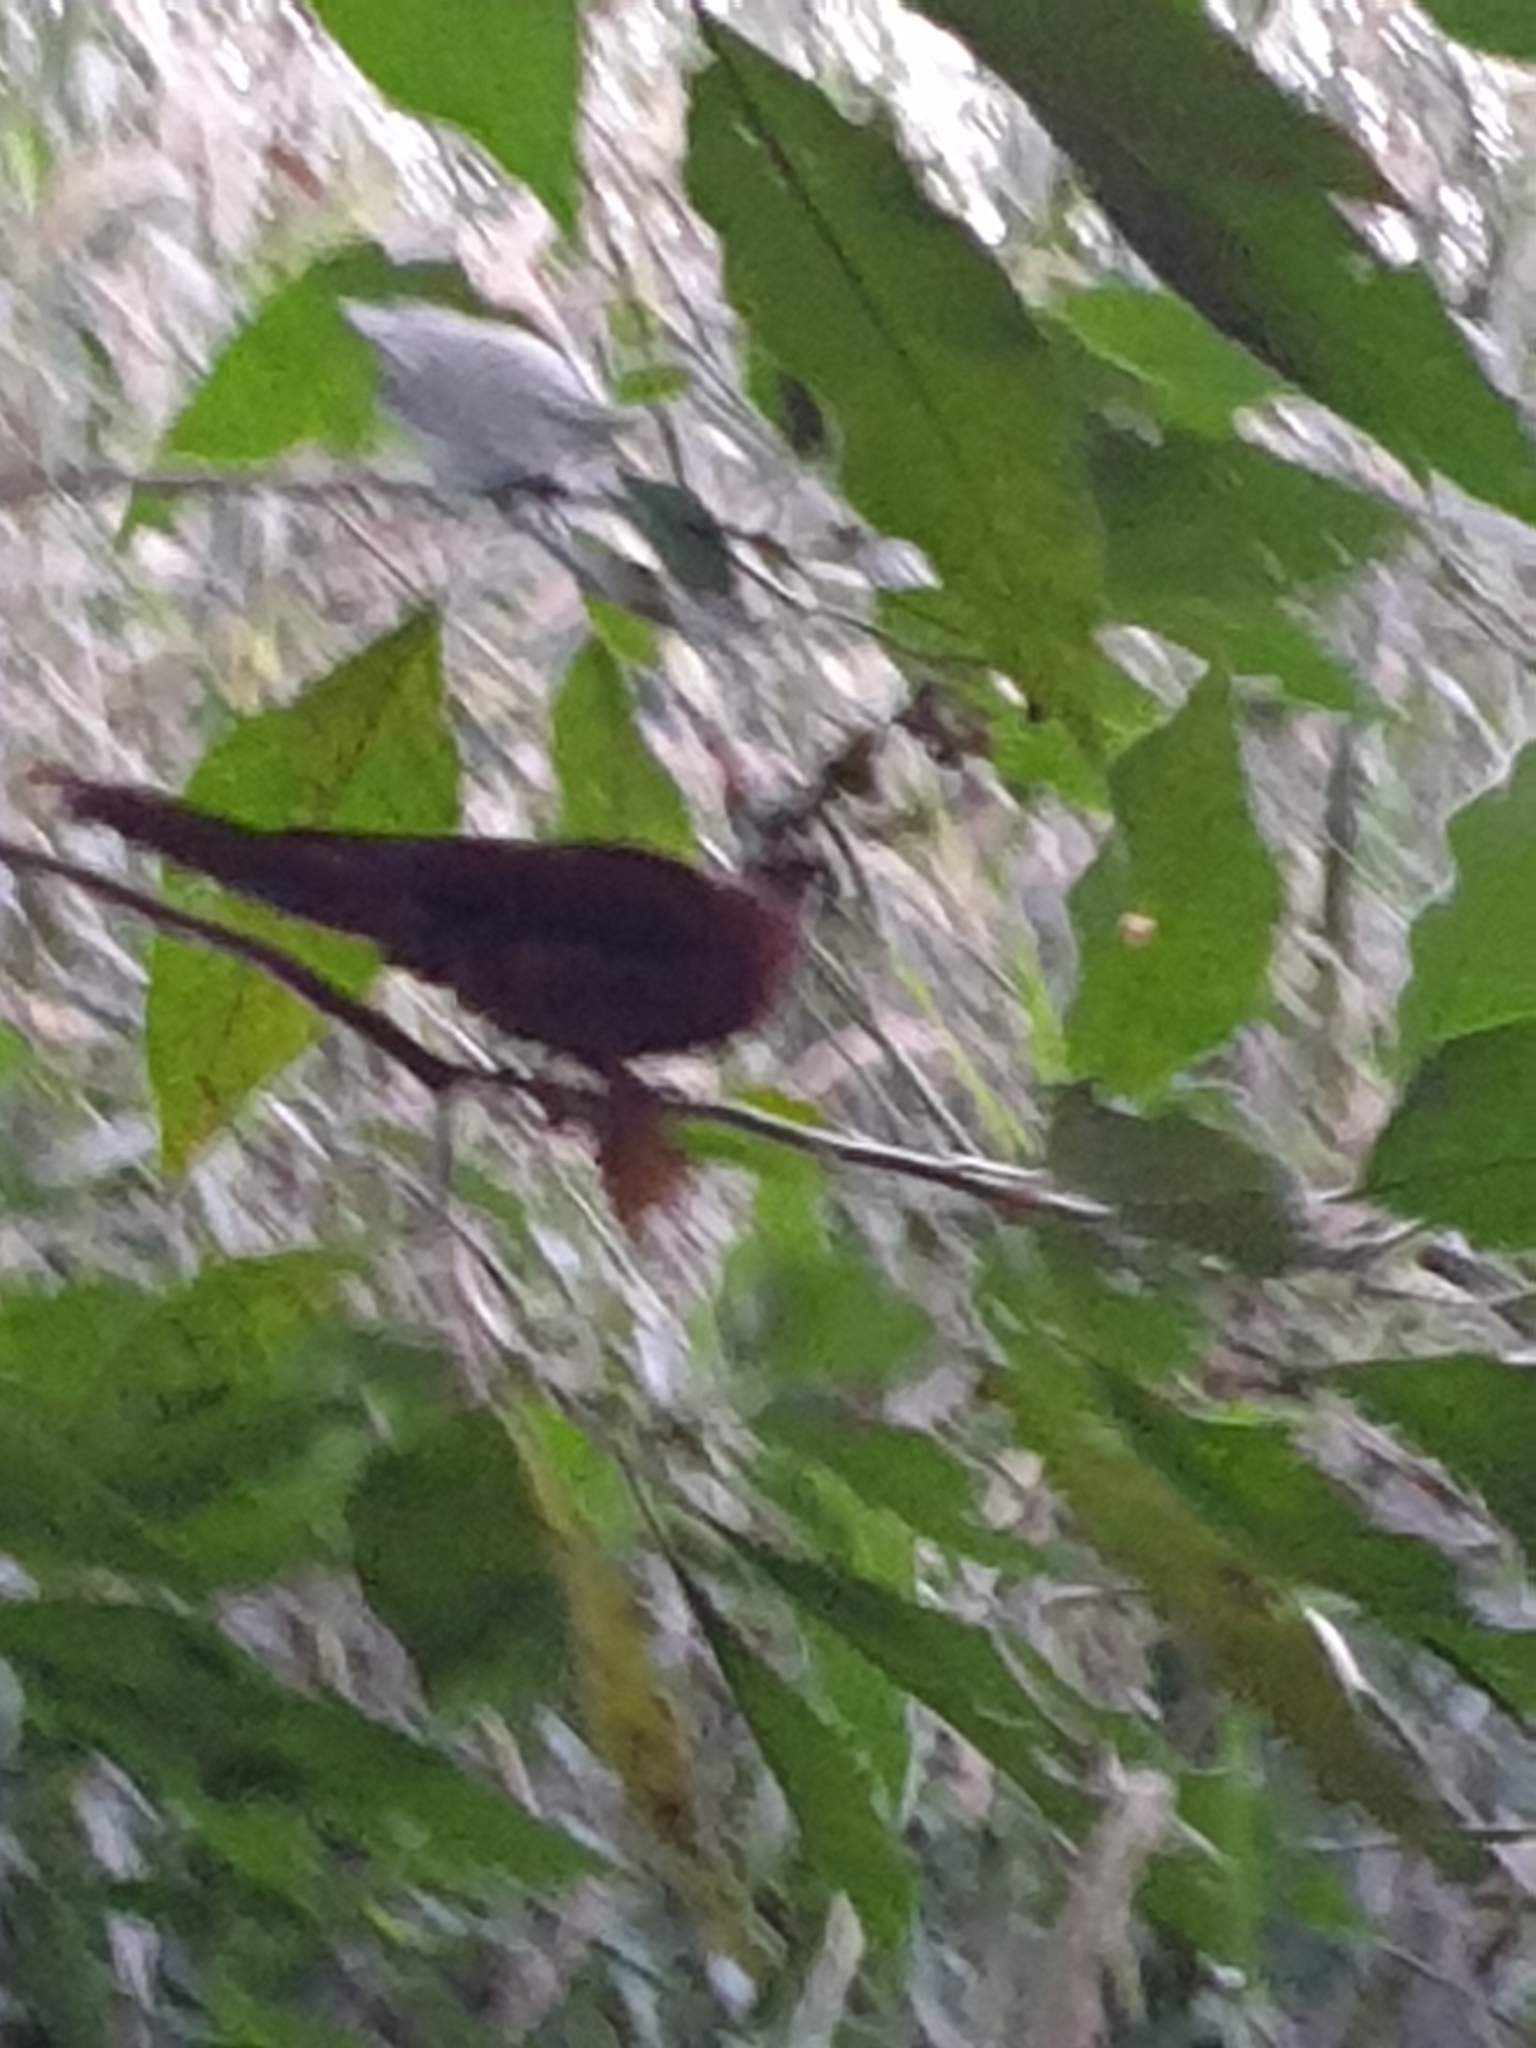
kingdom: Animalia
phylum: Chordata
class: Aves
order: Columbiformes
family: Columbidae
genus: Macropygia
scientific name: Macropygia phasianella
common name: Brown cuckoo-dove
